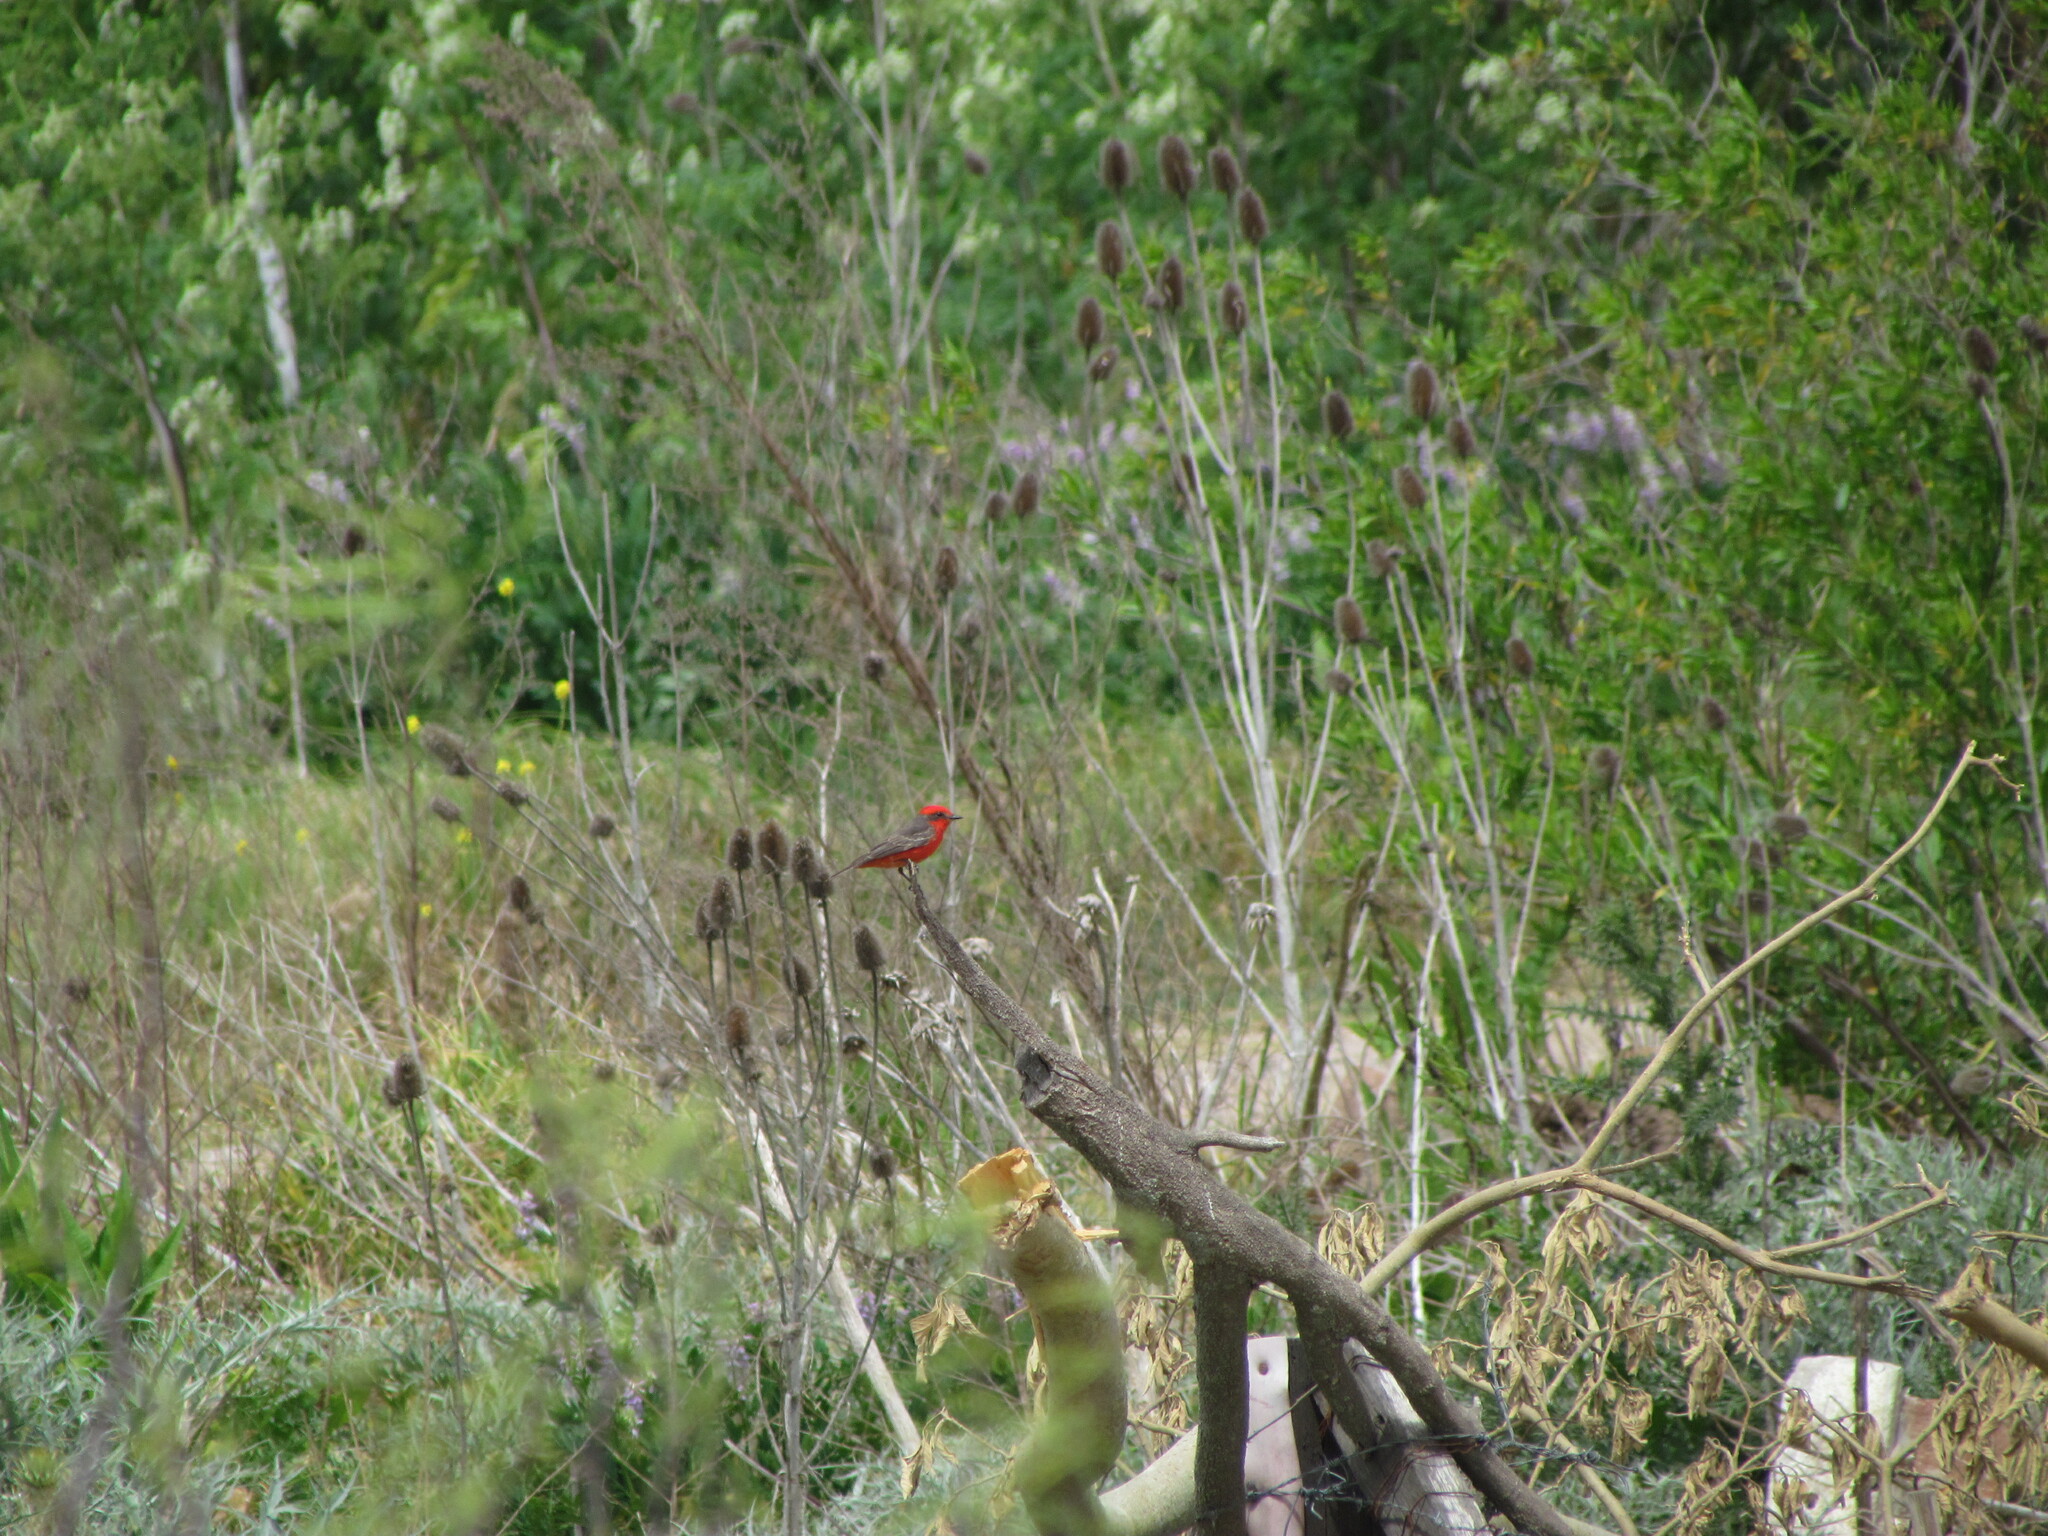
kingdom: Animalia
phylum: Chordata
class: Aves
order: Passeriformes
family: Tyrannidae
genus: Pyrocephalus
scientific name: Pyrocephalus rubinus
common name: Vermilion flycatcher
